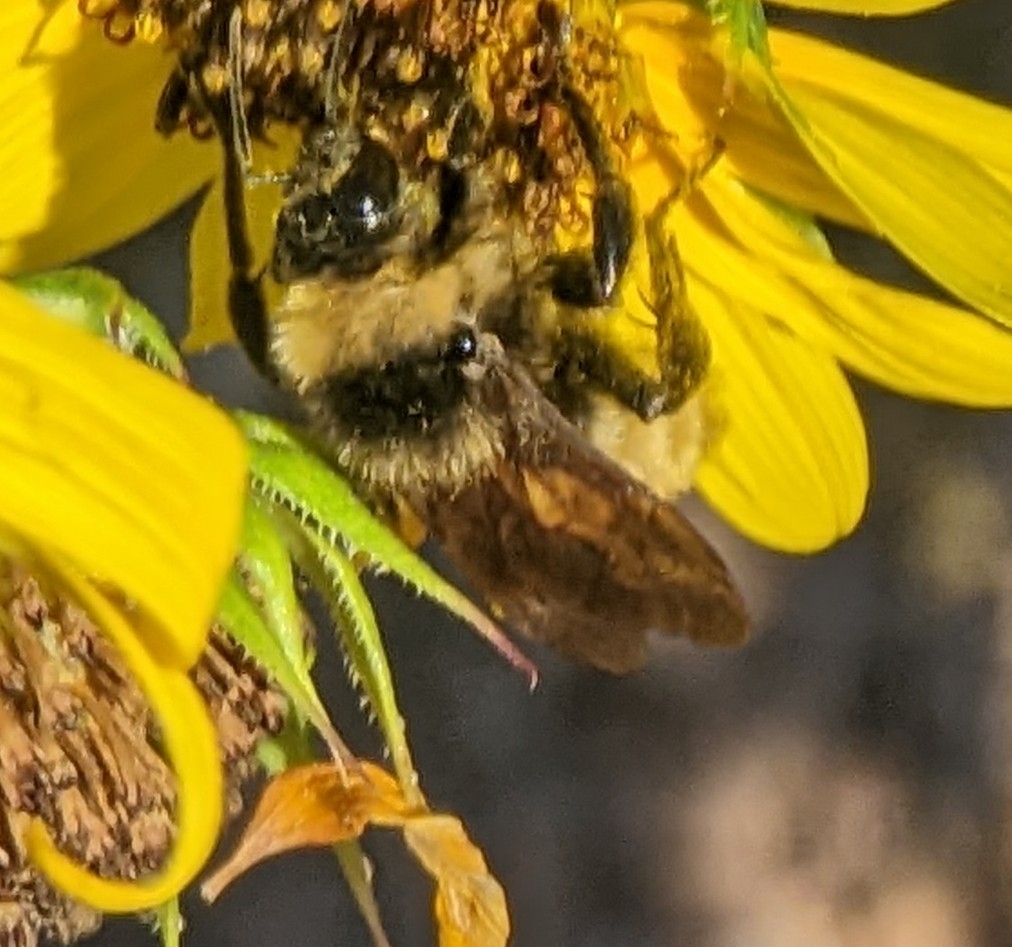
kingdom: Animalia
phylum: Arthropoda
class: Insecta
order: Hymenoptera
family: Apidae
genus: Bombus
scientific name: Bombus pensylvanicus
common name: Bumble bee
